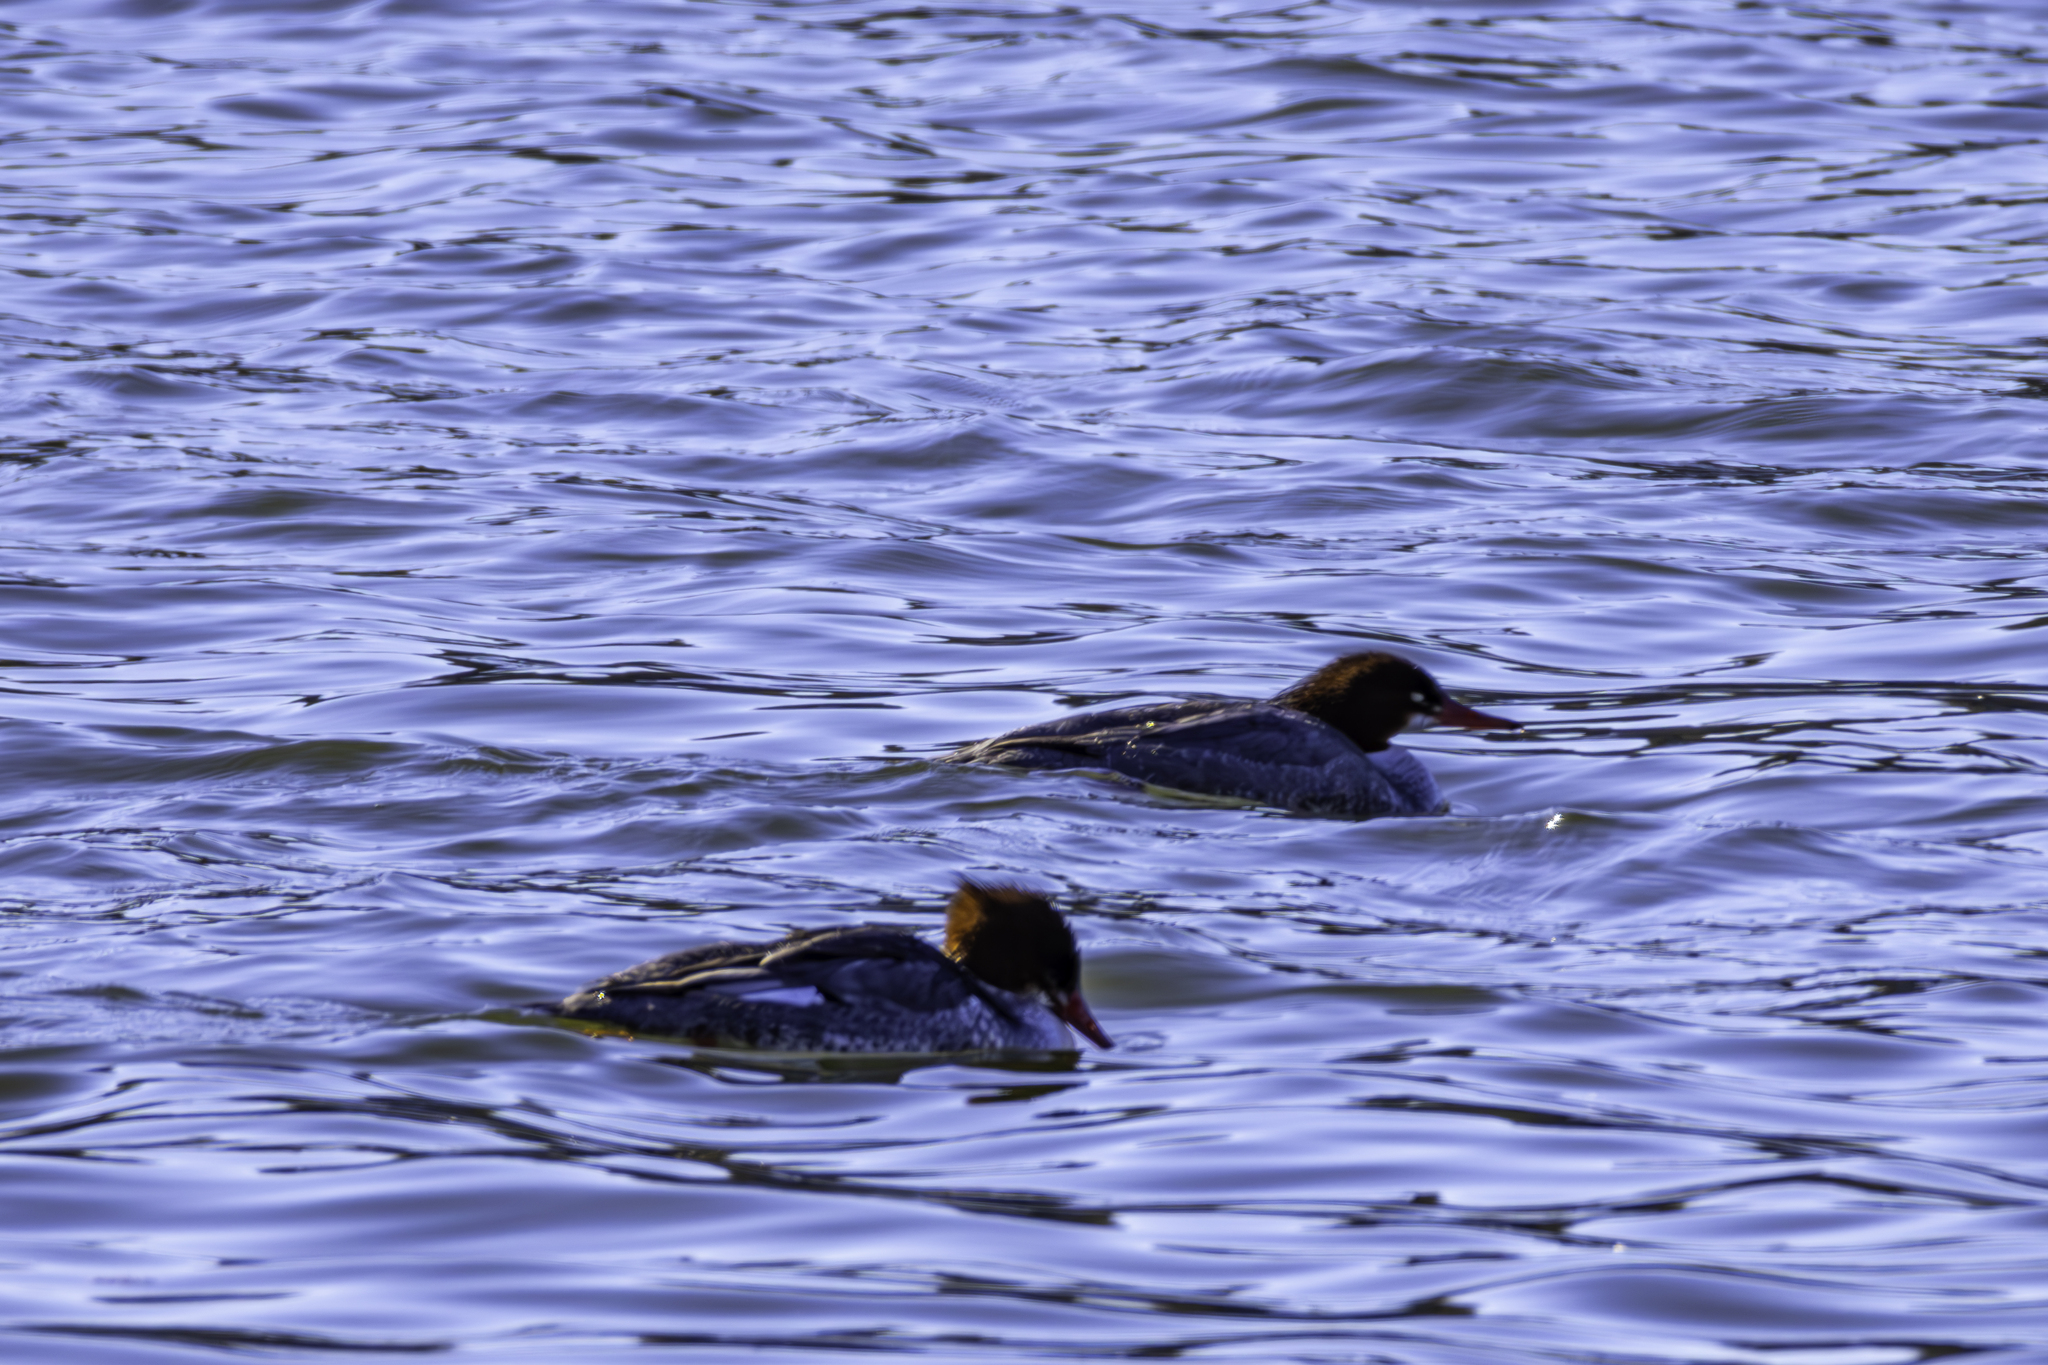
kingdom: Animalia
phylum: Chordata
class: Aves
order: Anseriformes
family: Anatidae
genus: Mergus
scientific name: Mergus merganser
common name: Common merganser
